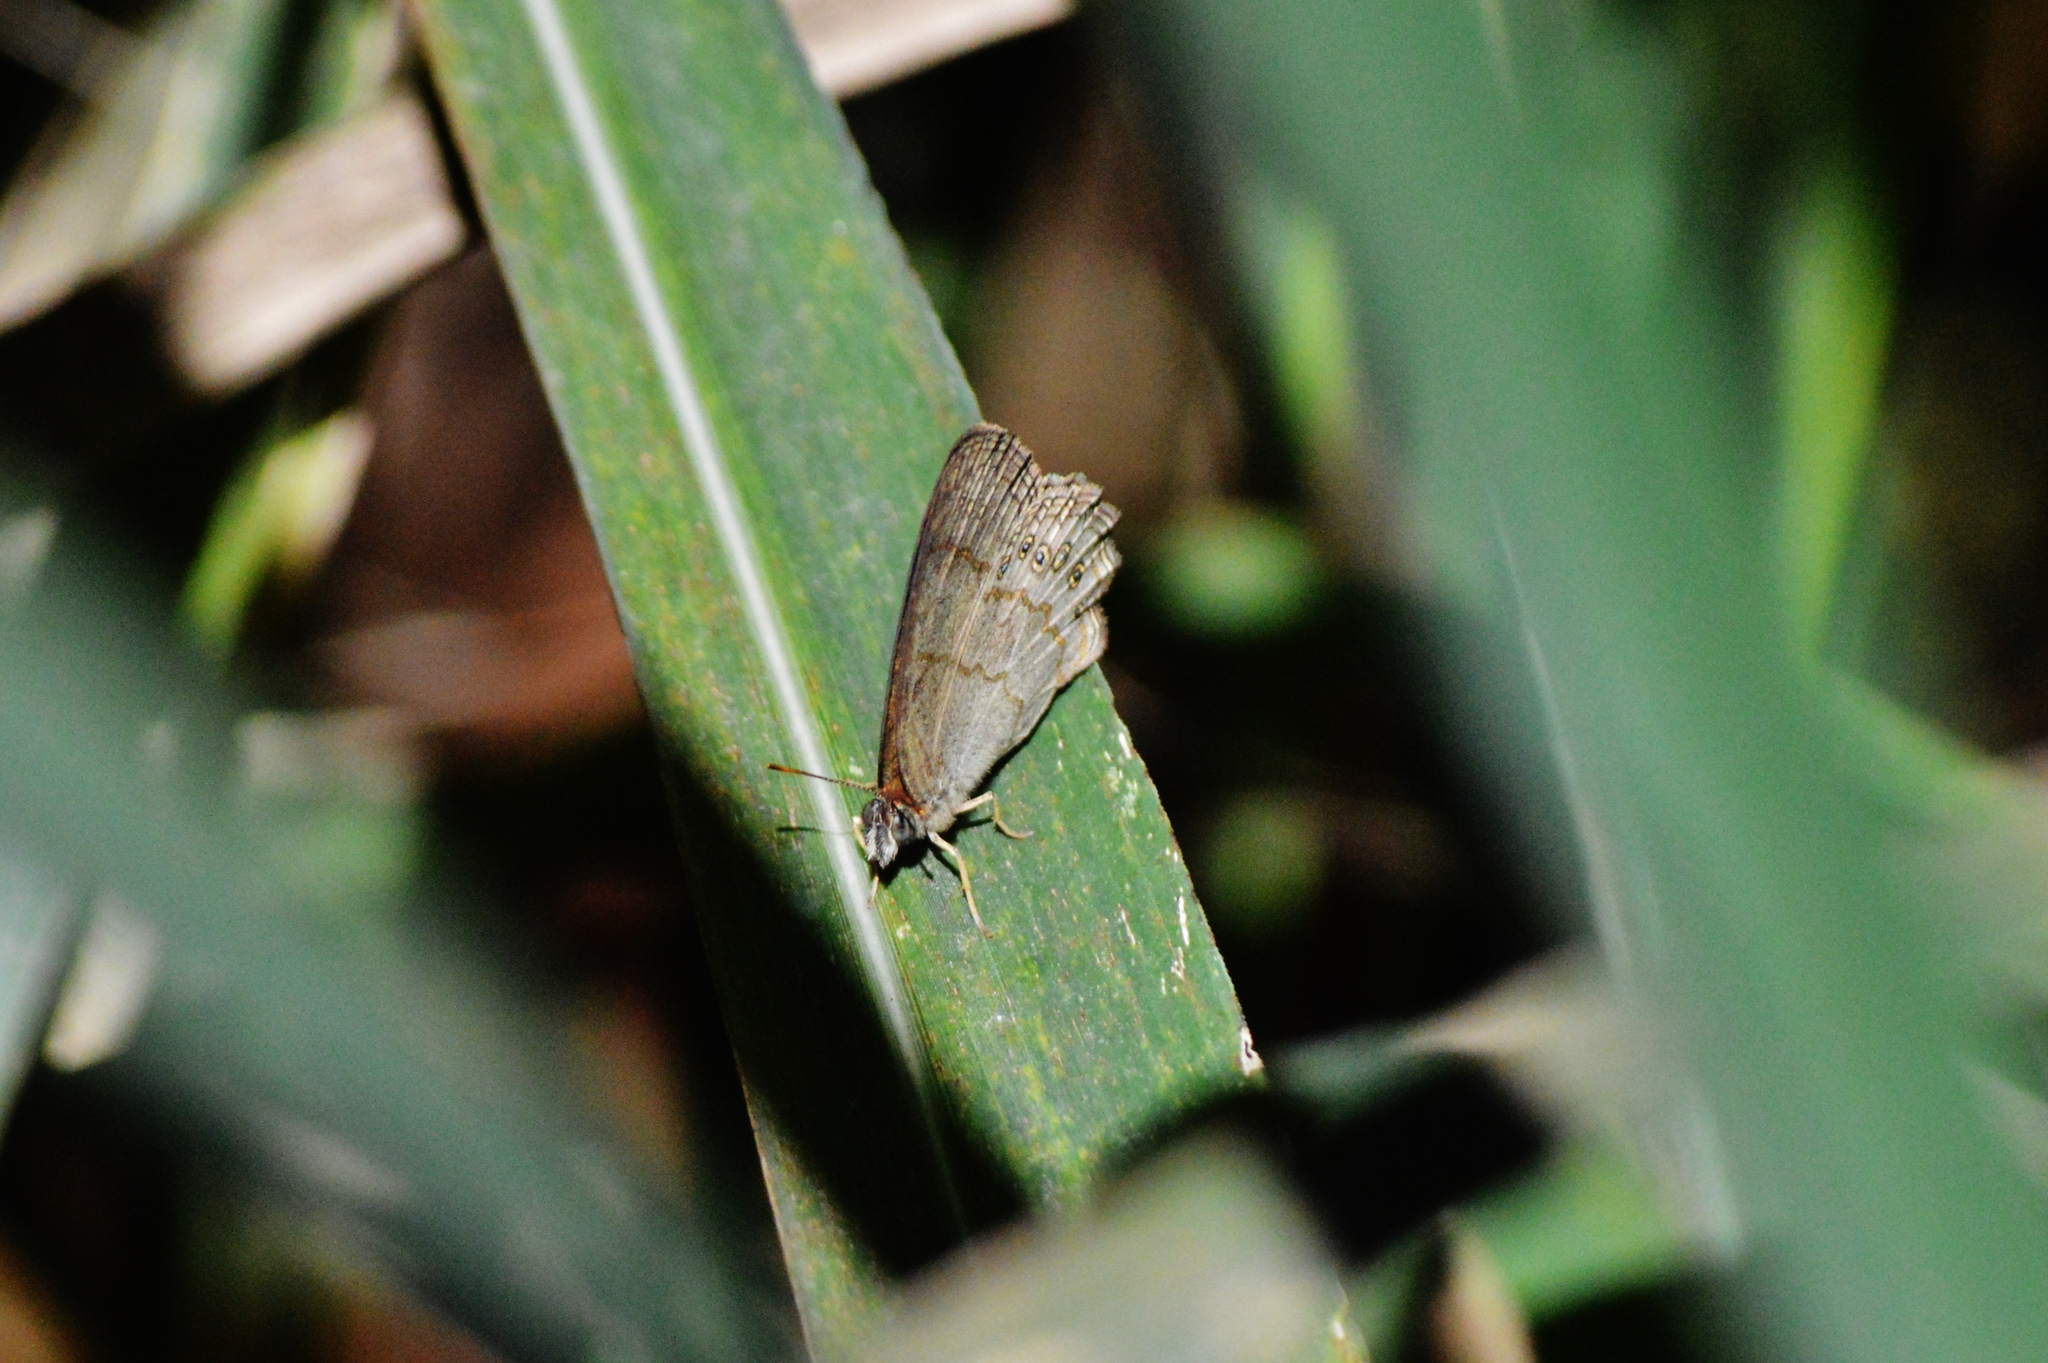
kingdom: Animalia
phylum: Arthropoda
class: Insecta
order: Lepidoptera
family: Nymphalidae
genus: Hermeuptychia
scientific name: Hermeuptychia hermes
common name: Hermes satyr
